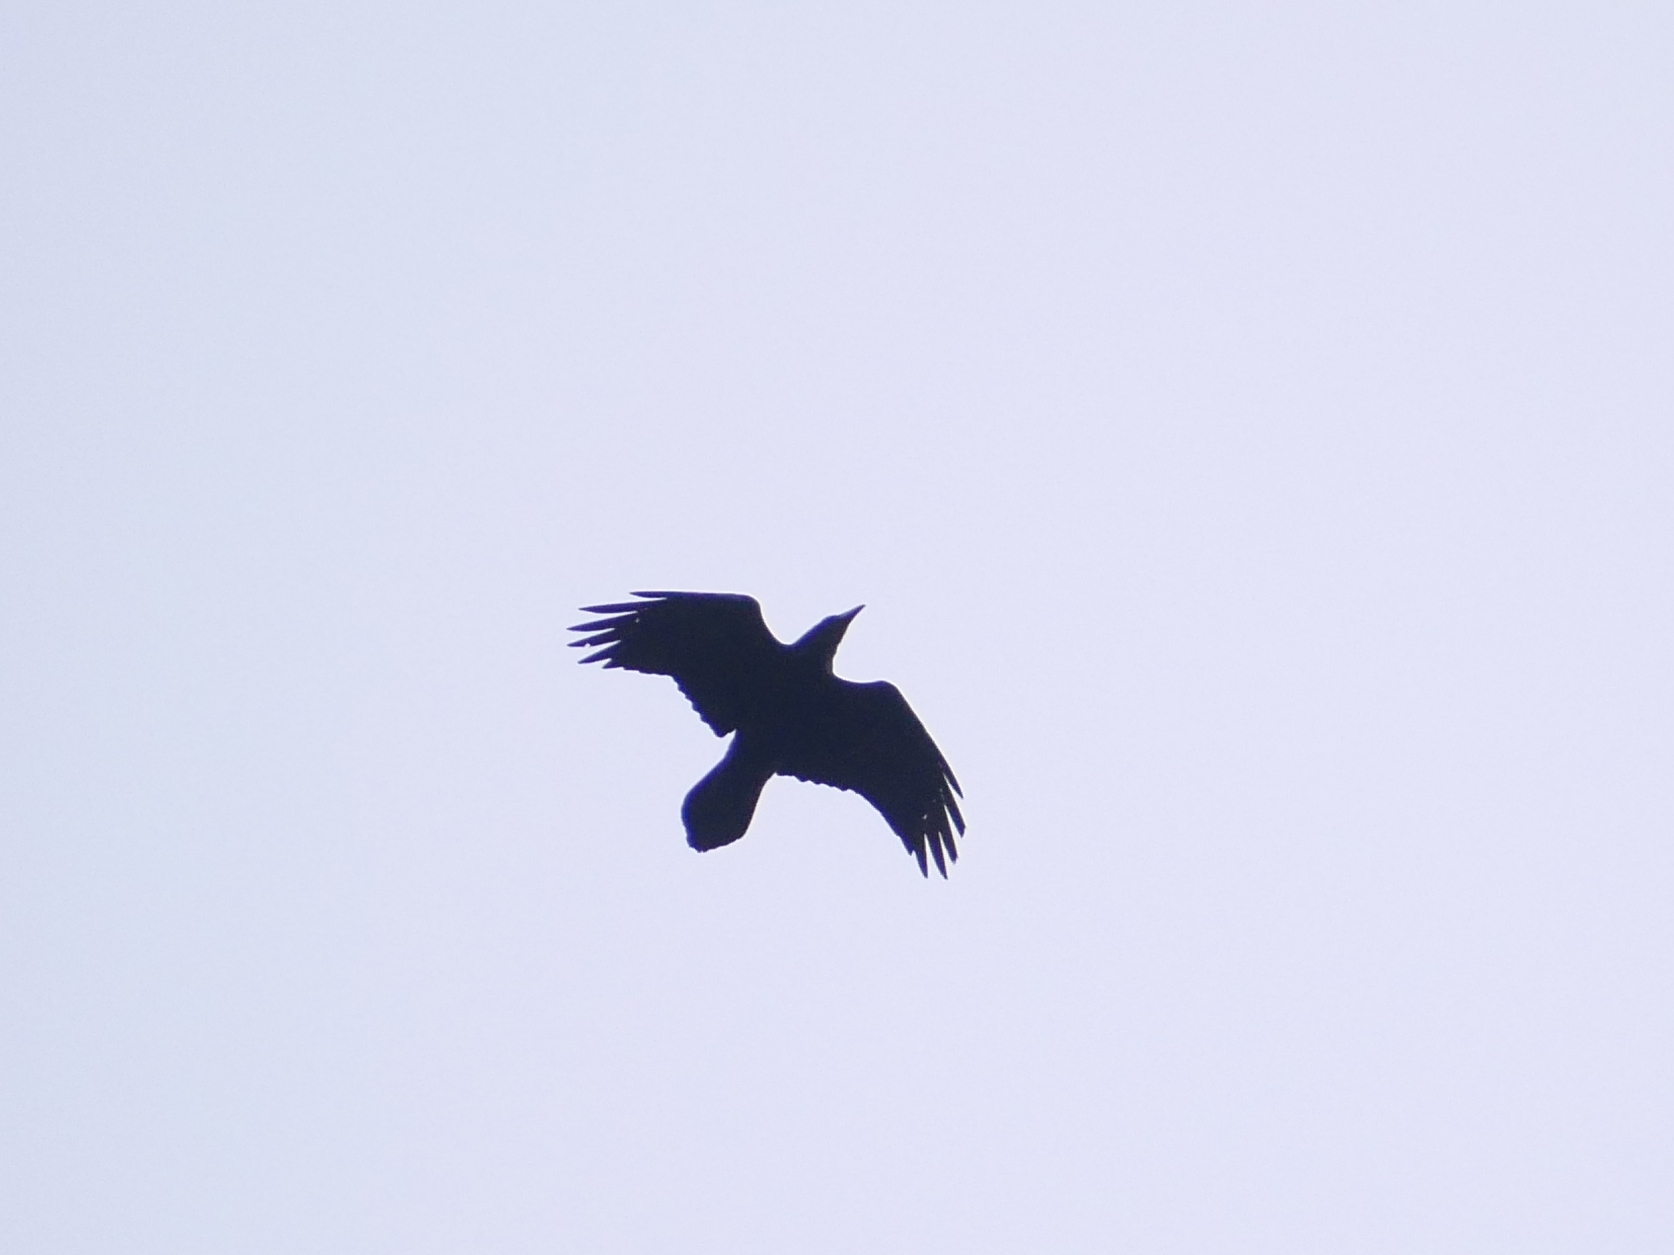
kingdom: Animalia
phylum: Chordata
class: Aves
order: Passeriformes
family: Corvidae
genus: Corvus
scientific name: Corvus corax
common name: Common raven
